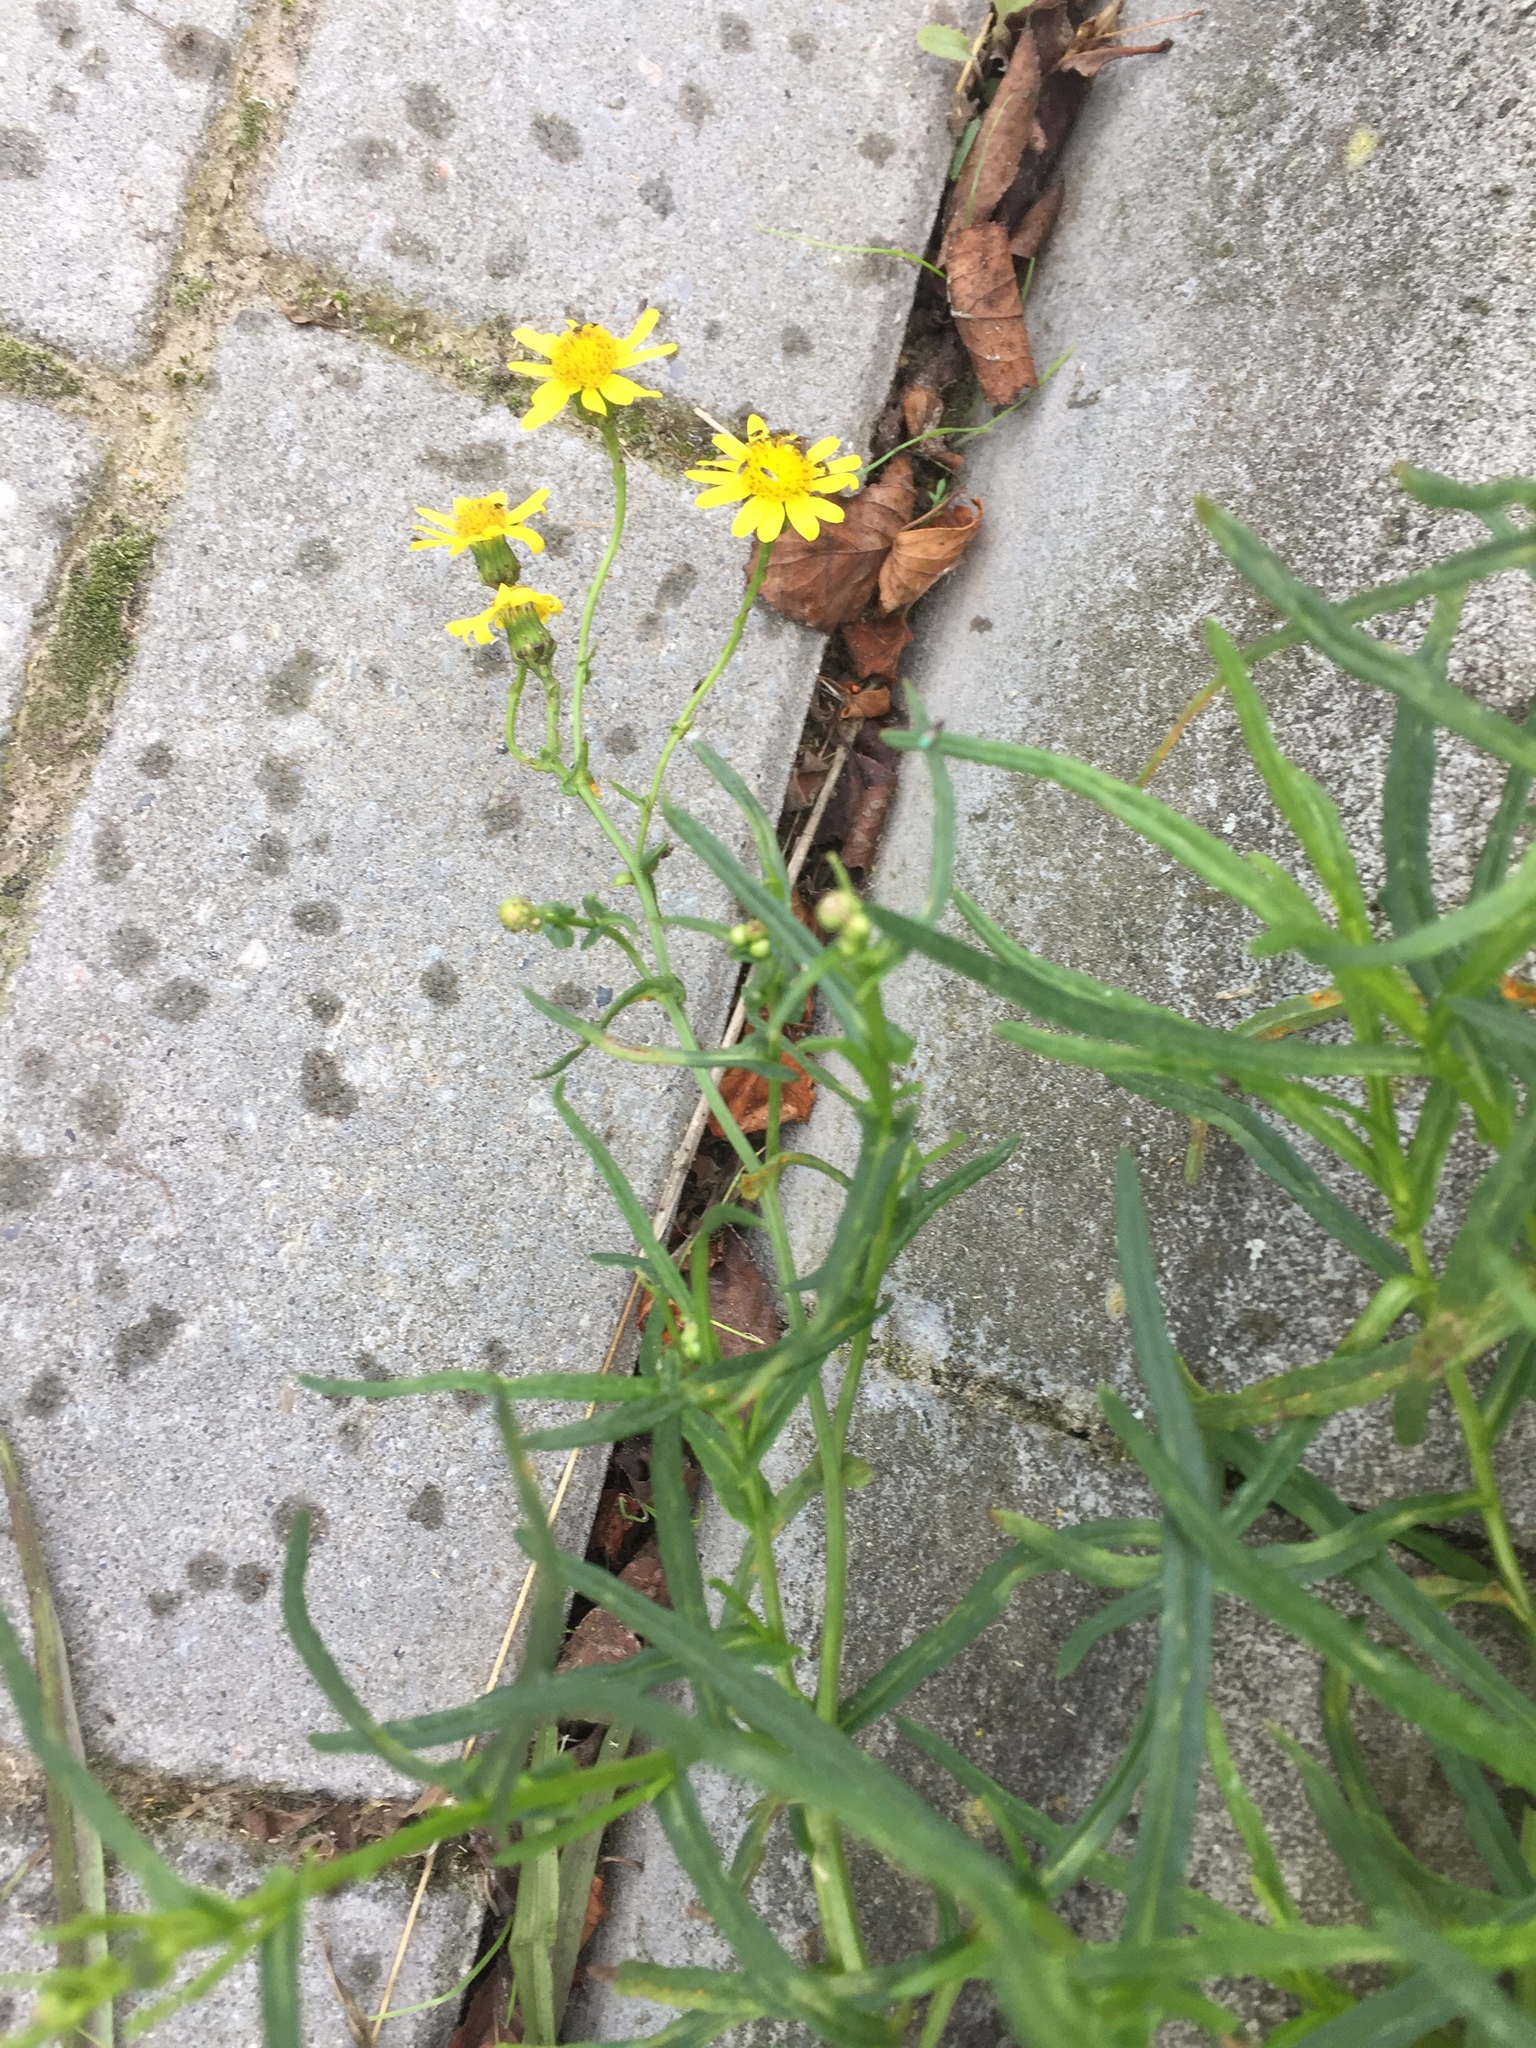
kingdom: Plantae
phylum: Tracheophyta
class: Magnoliopsida
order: Asterales
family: Asteraceae
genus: Senecio
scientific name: Senecio inaequidens
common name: Narrow-leaved ragwort
